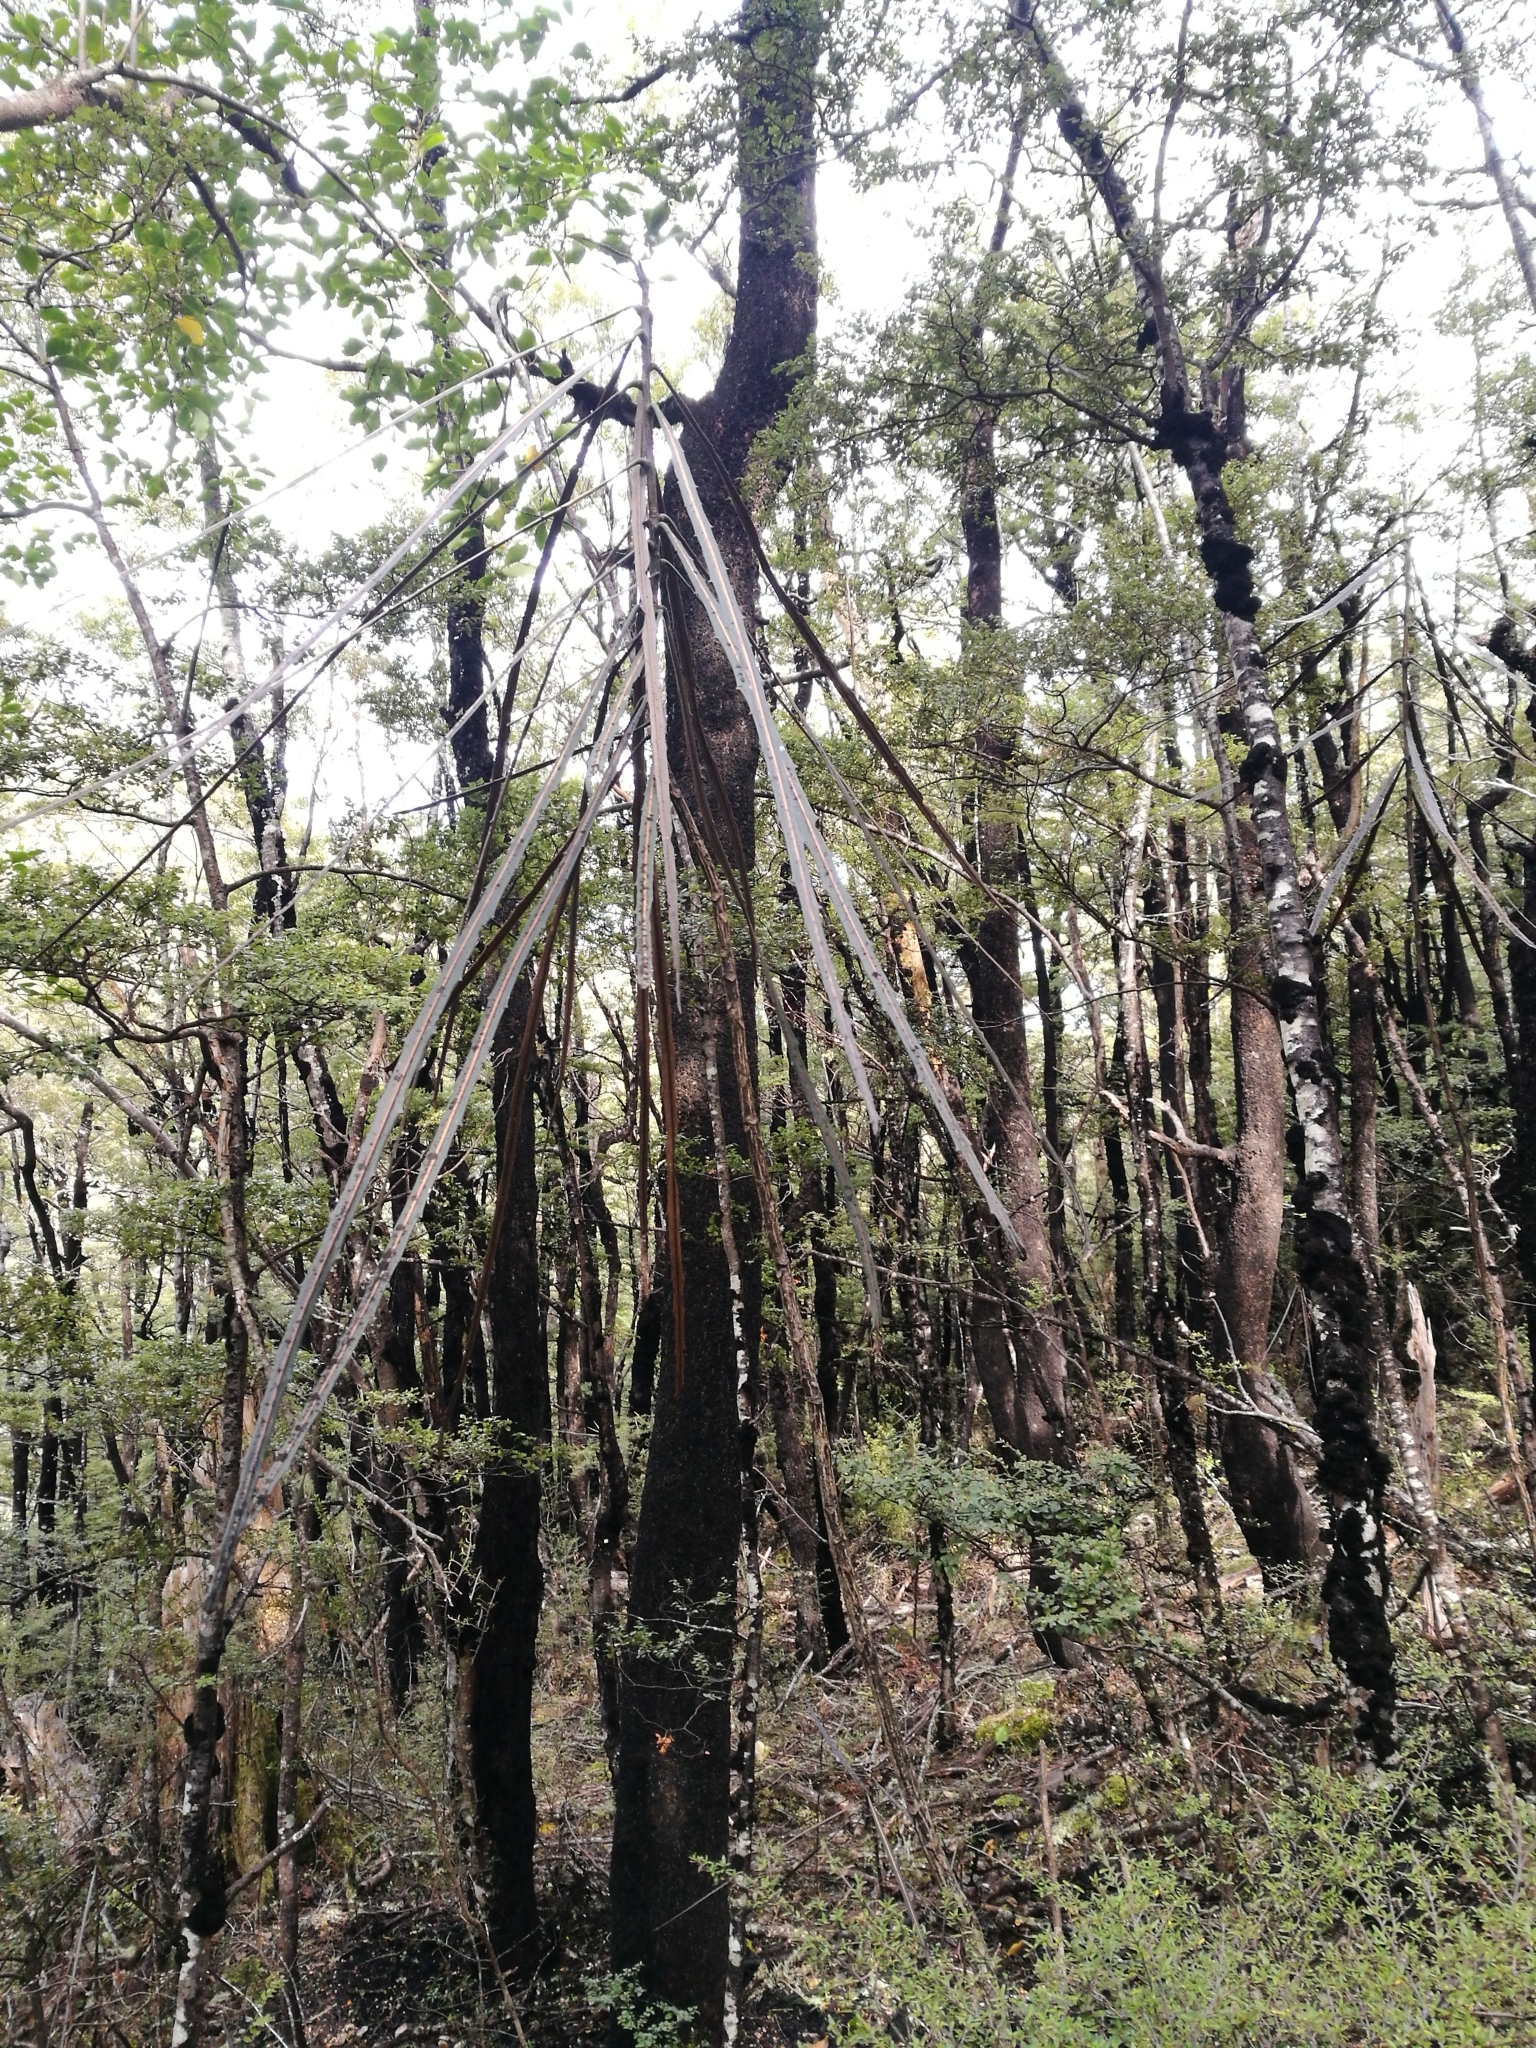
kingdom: Plantae
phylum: Tracheophyta
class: Magnoliopsida
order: Apiales
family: Araliaceae
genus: Pseudopanax
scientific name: Pseudopanax crassifolius
